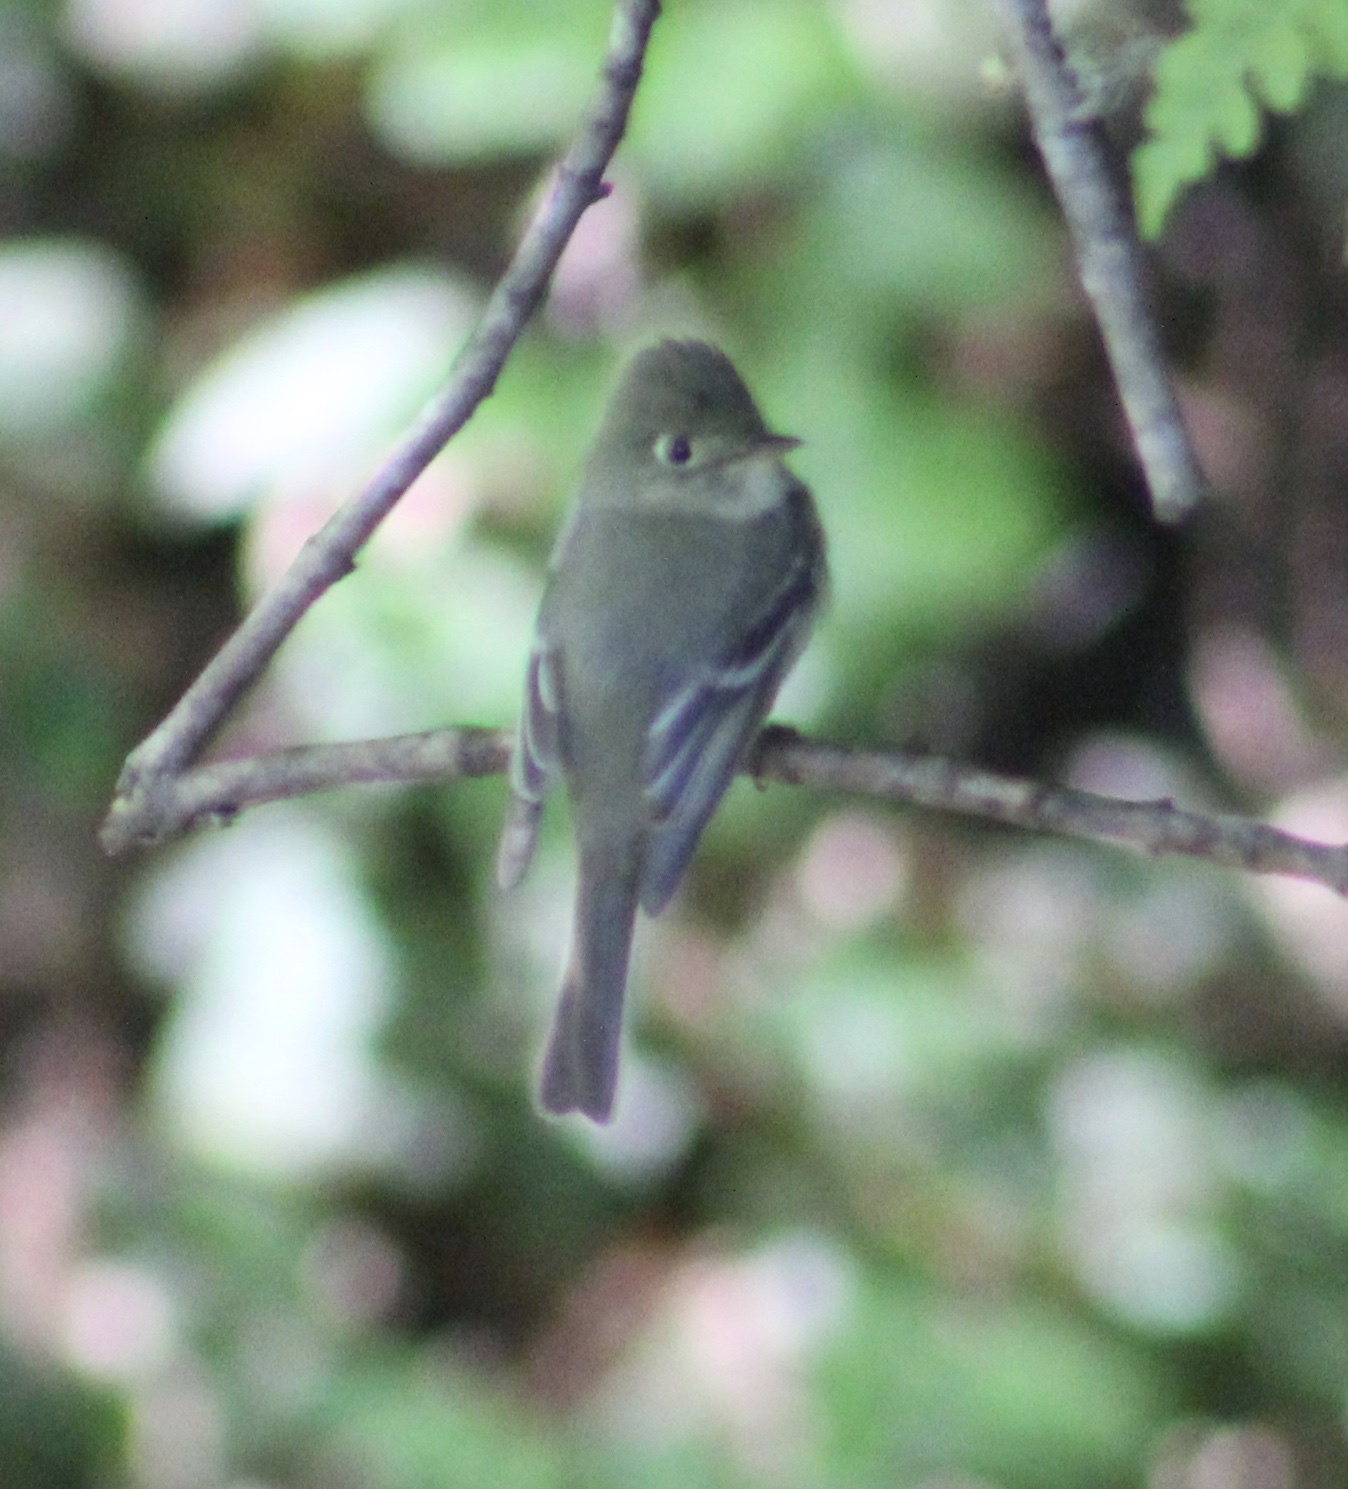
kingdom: Animalia
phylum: Chordata
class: Aves
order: Passeriformes
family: Tyrannidae
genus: Empidonax
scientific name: Empidonax difficilis
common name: Pacific-slope flycatcher
